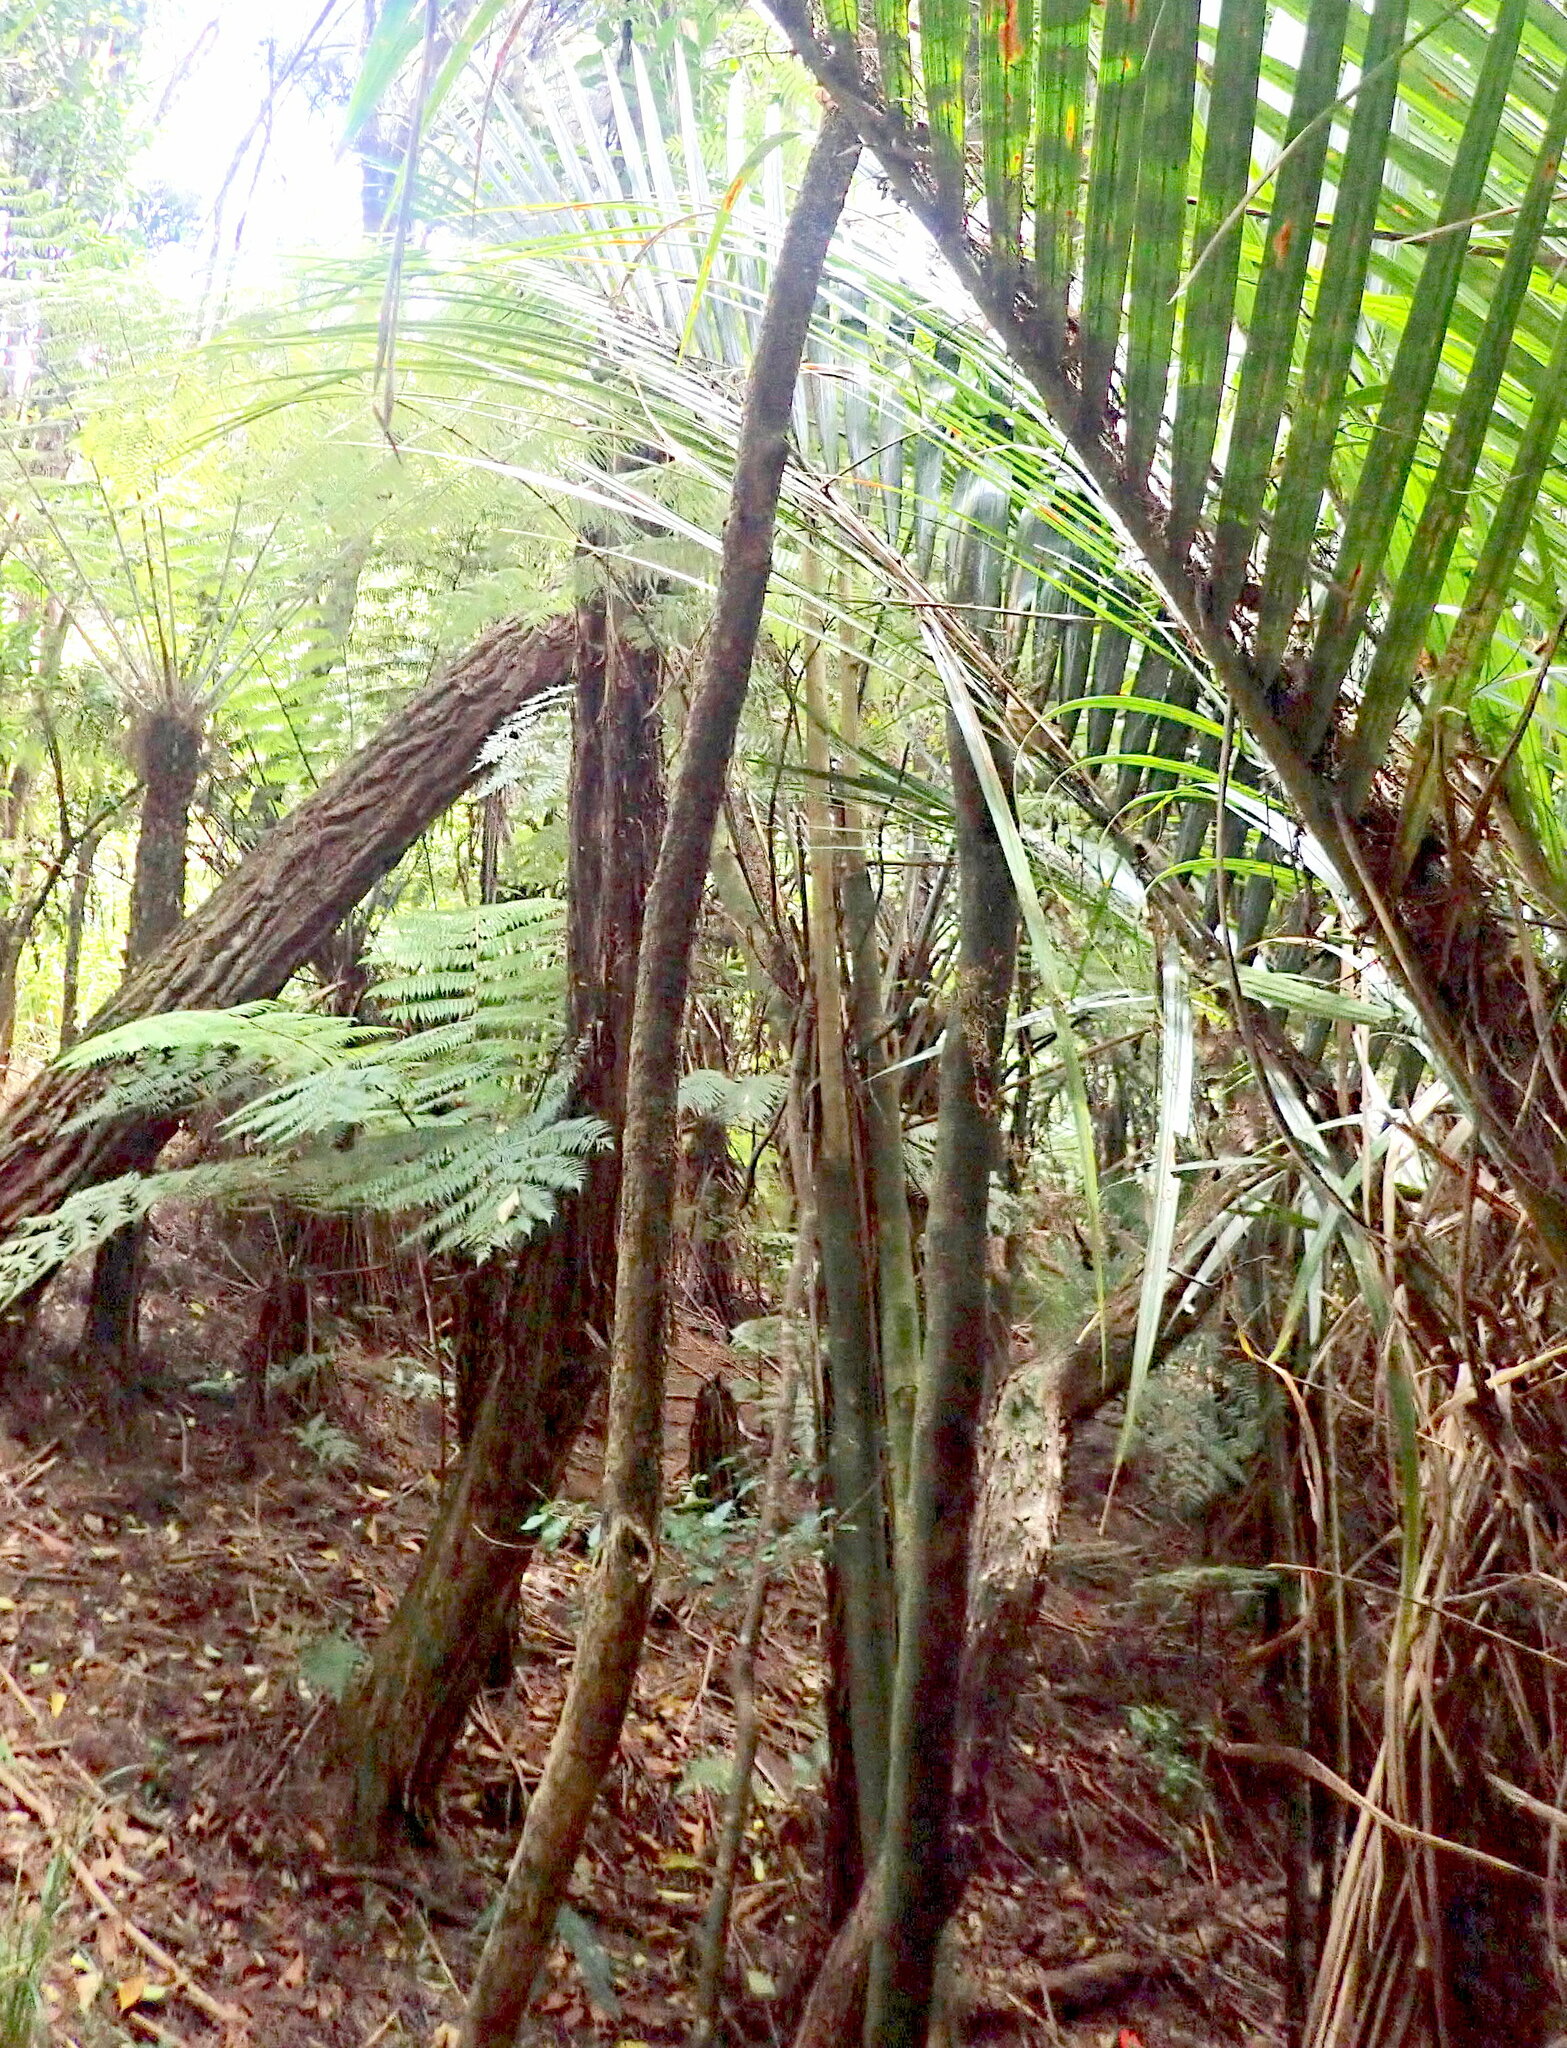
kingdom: Plantae
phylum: Tracheophyta
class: Magnoliopsida
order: Malpighiales
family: Violaceae
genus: Melicytus
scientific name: Melicytus ramiflorus
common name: Mahoe
